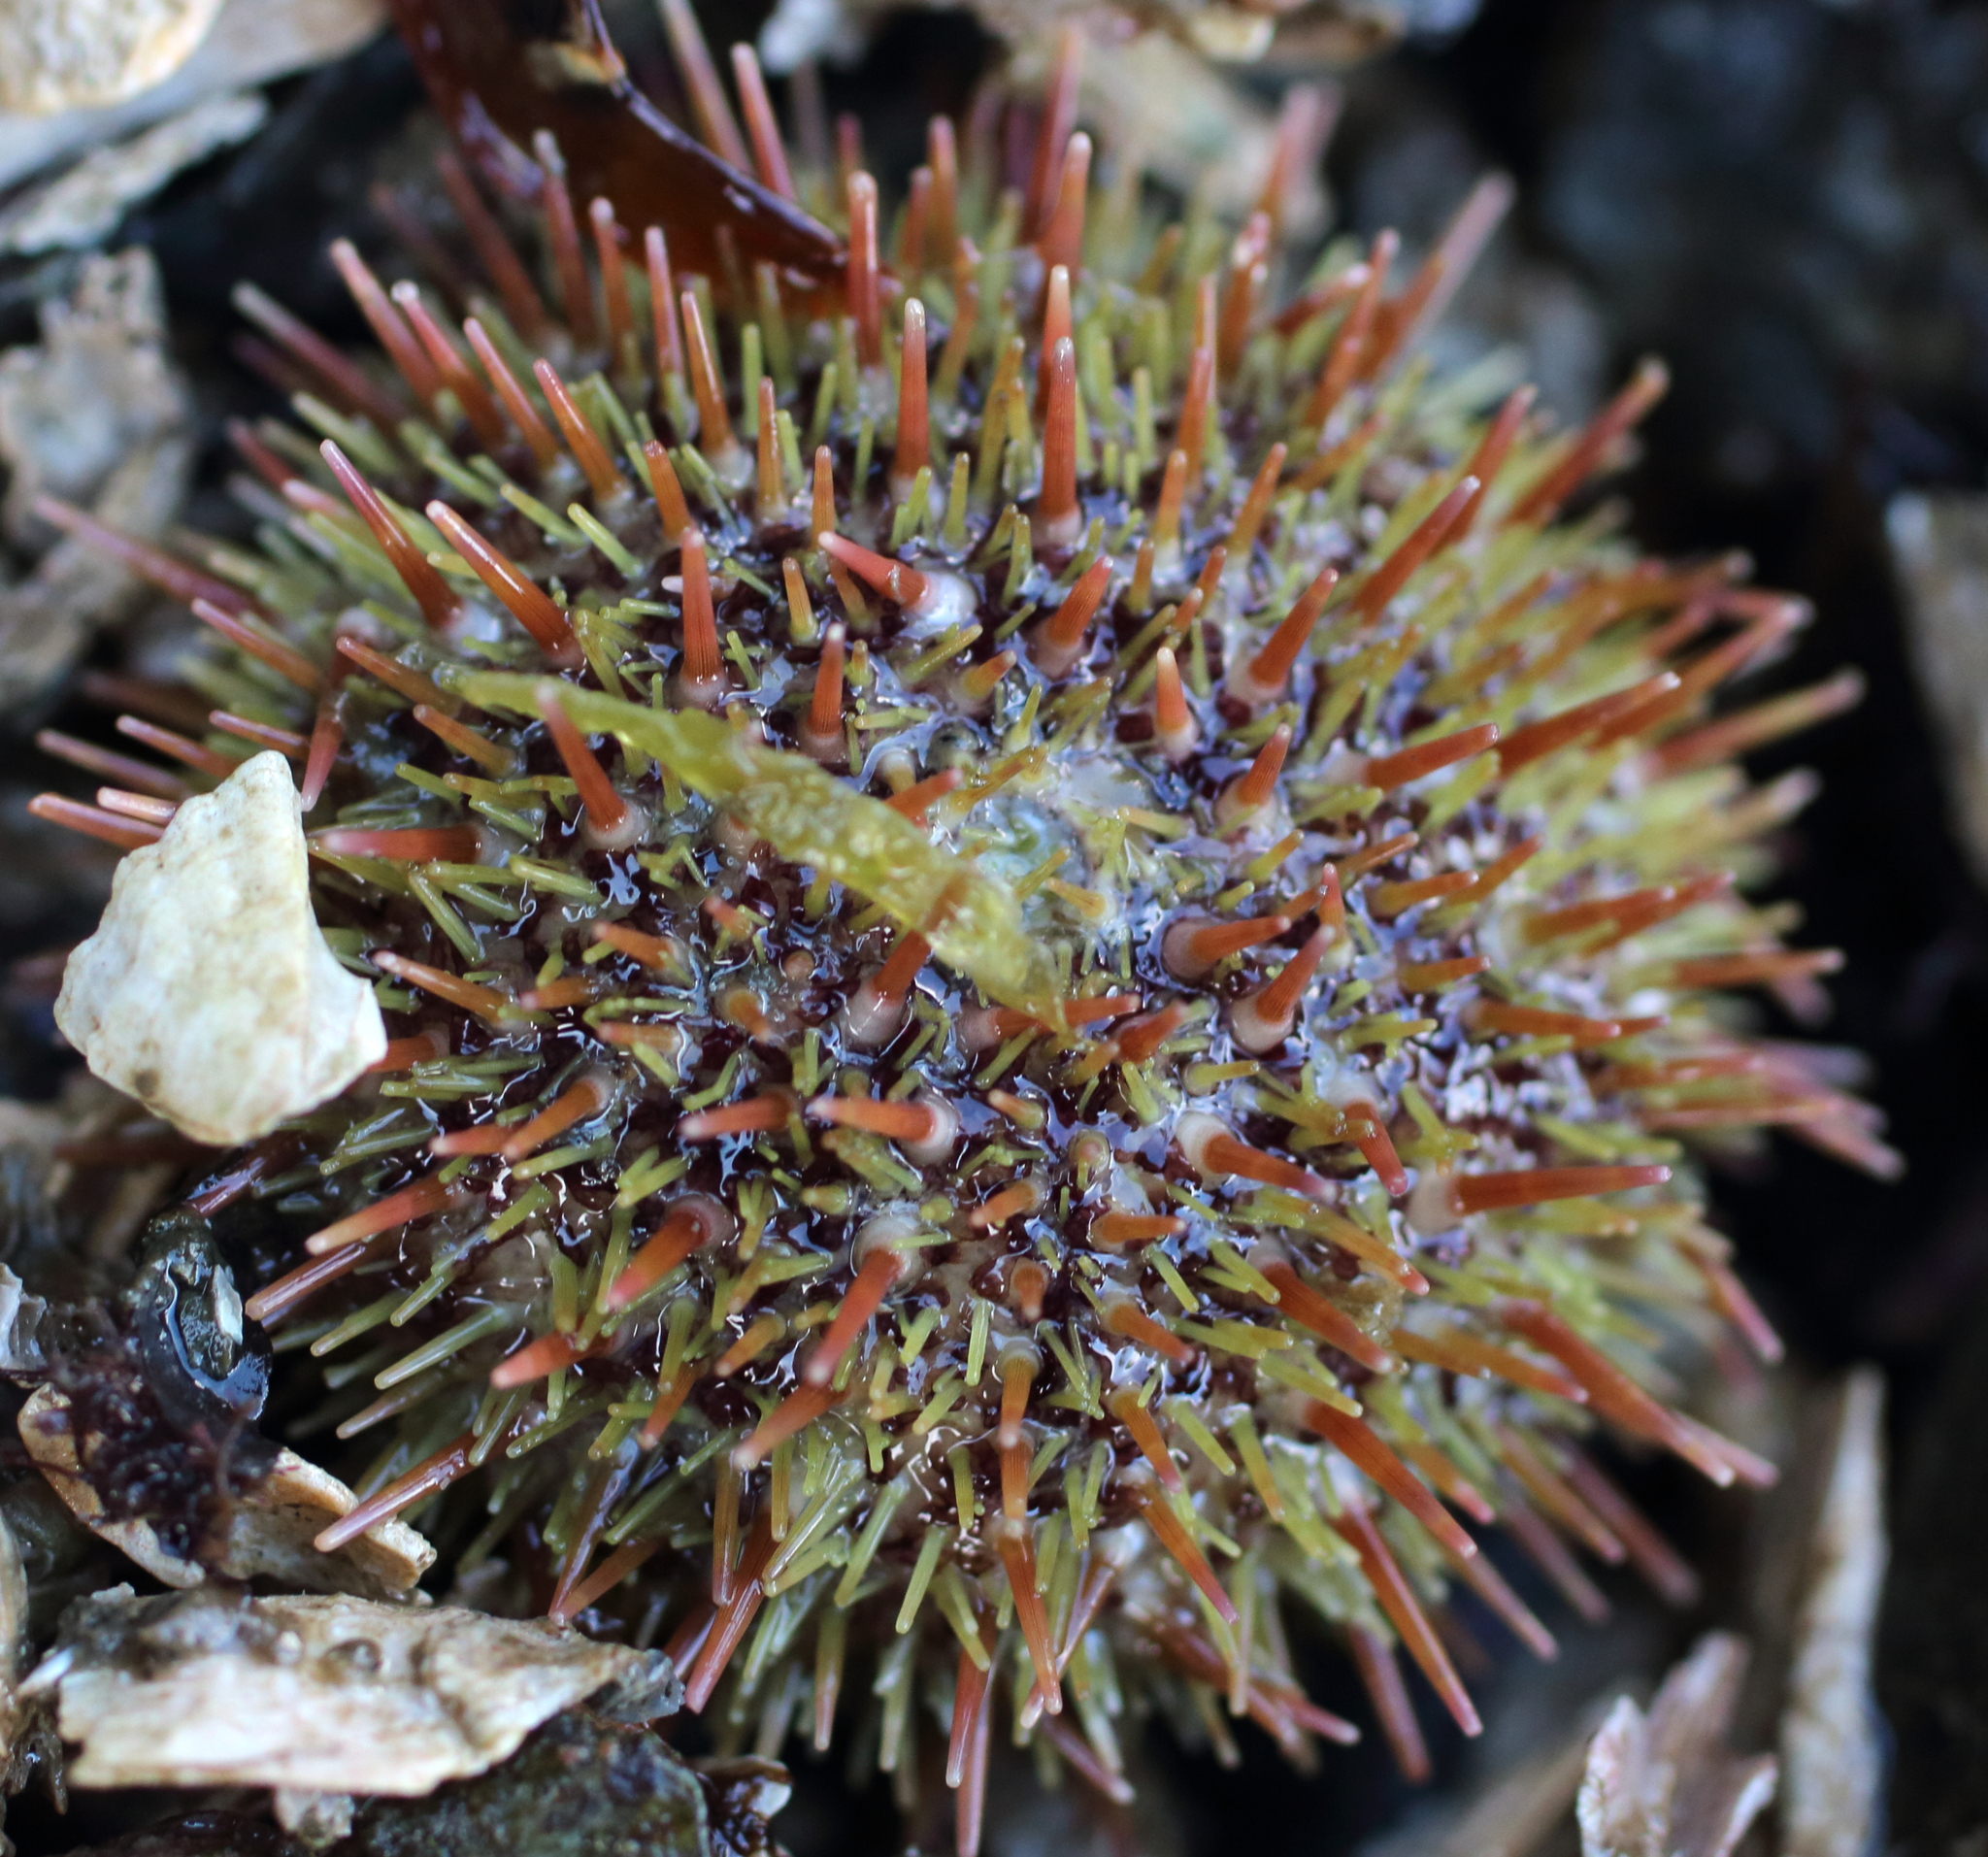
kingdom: Animalia
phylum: Echinodermata
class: Echinoidea
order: Camarodonta
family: Strongylocentrotidae
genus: Strongylocentrotus
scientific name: Strongylocentrotus droebachiensis
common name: Northern sea urchin
